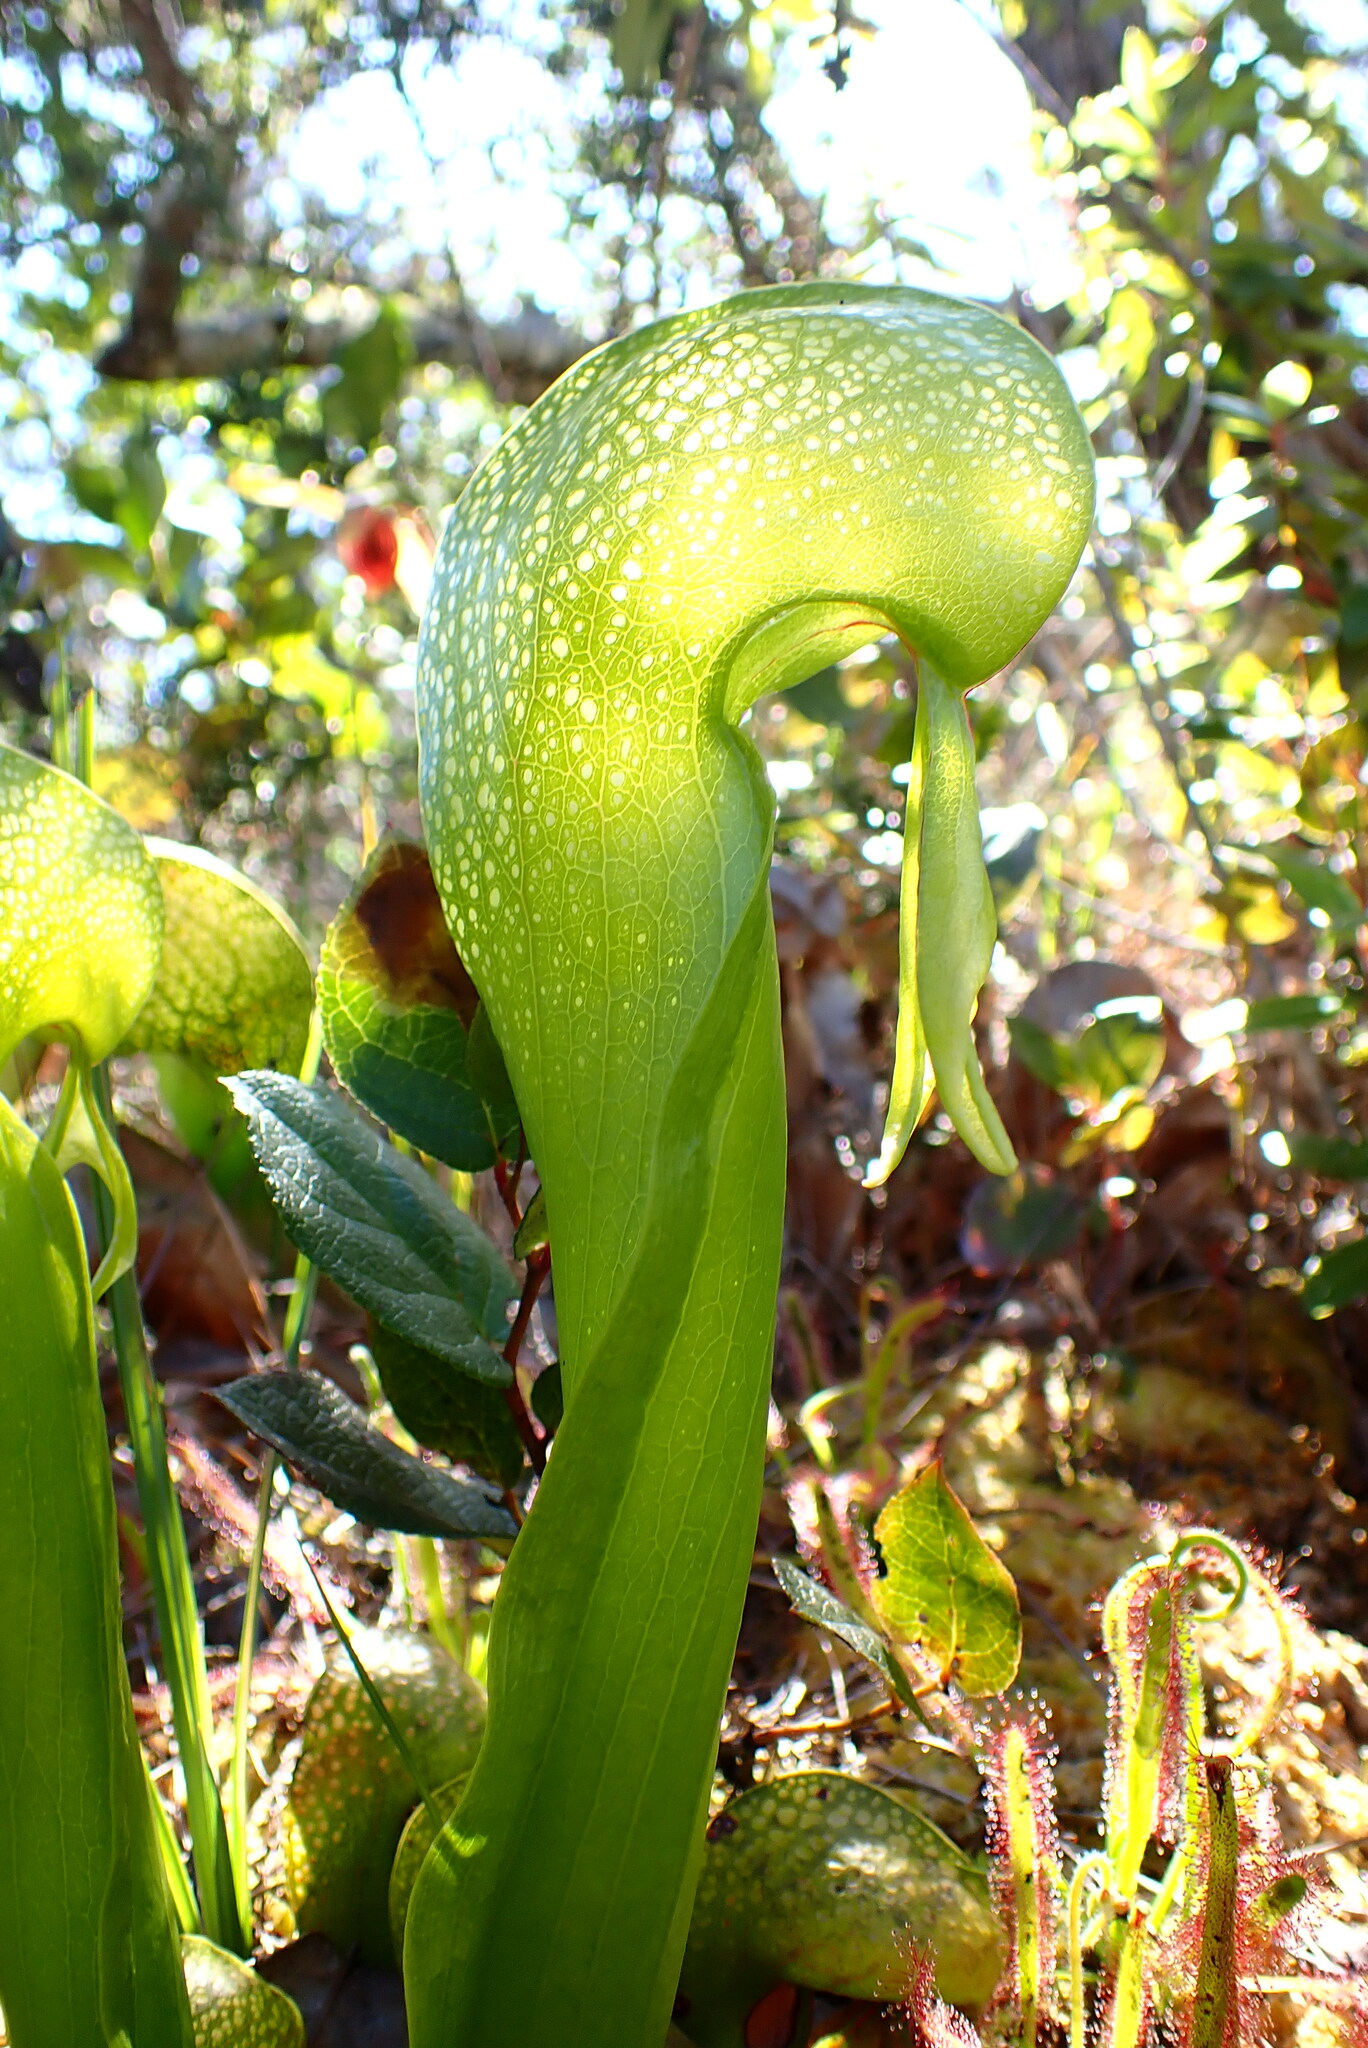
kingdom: Plantae
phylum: Tracheophyta
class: Magnoliopsida
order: Ericales
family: Sarraceniaceae
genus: Darlingtonia
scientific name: Darlingtonia californica
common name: California pitcher plant
